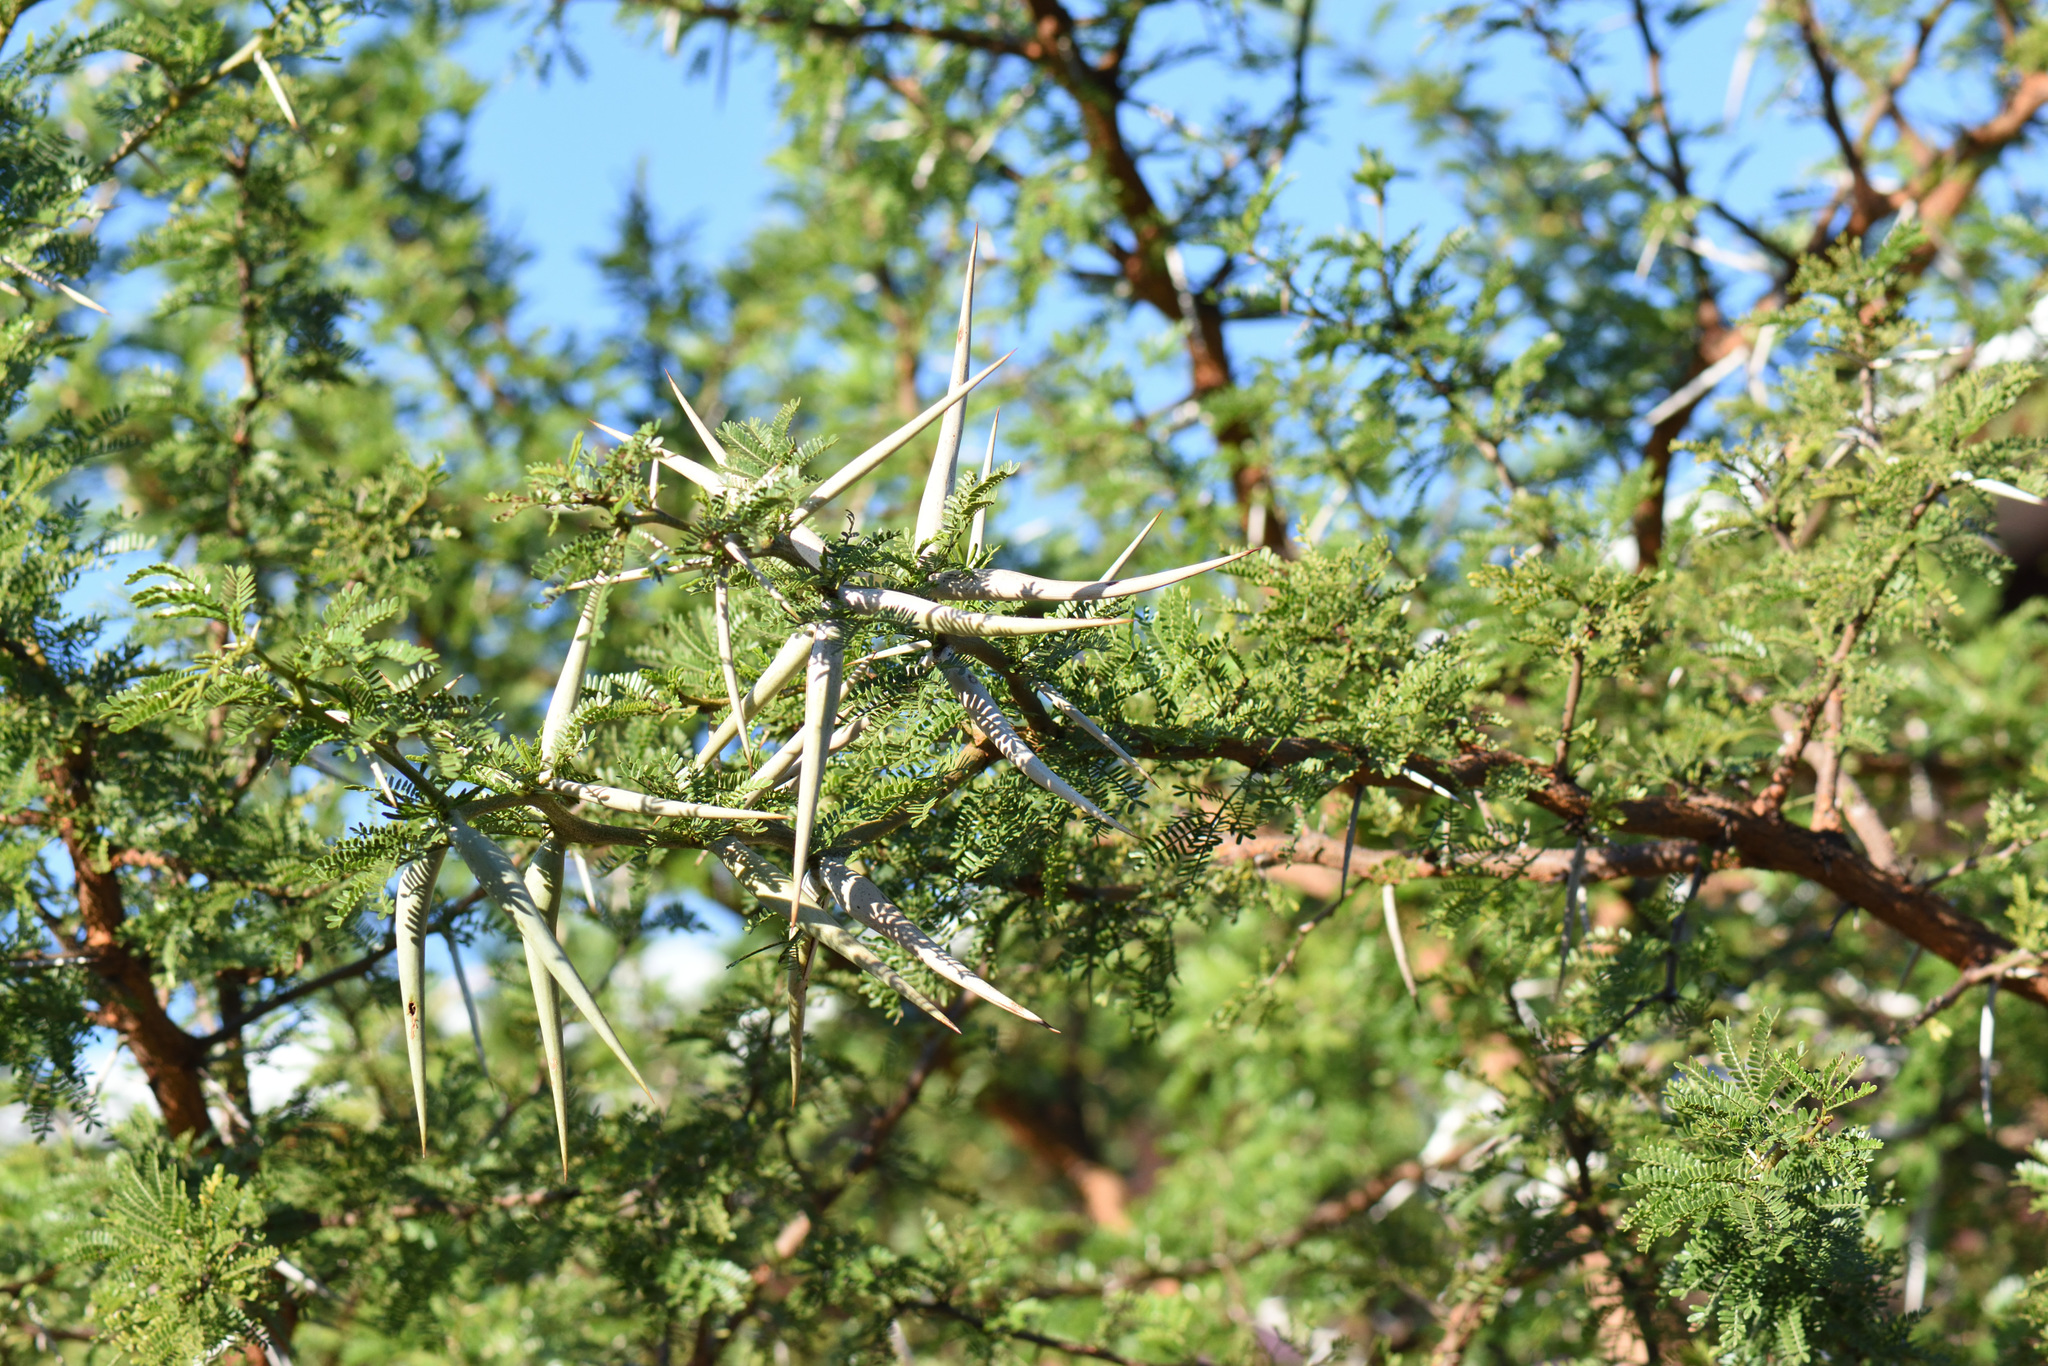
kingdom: Plantae
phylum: Tracheophyta
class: Magnoliopsida
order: Fabales
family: Fabaceae
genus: Vachellia
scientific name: Vachellia karroo
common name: Sweet thorn
